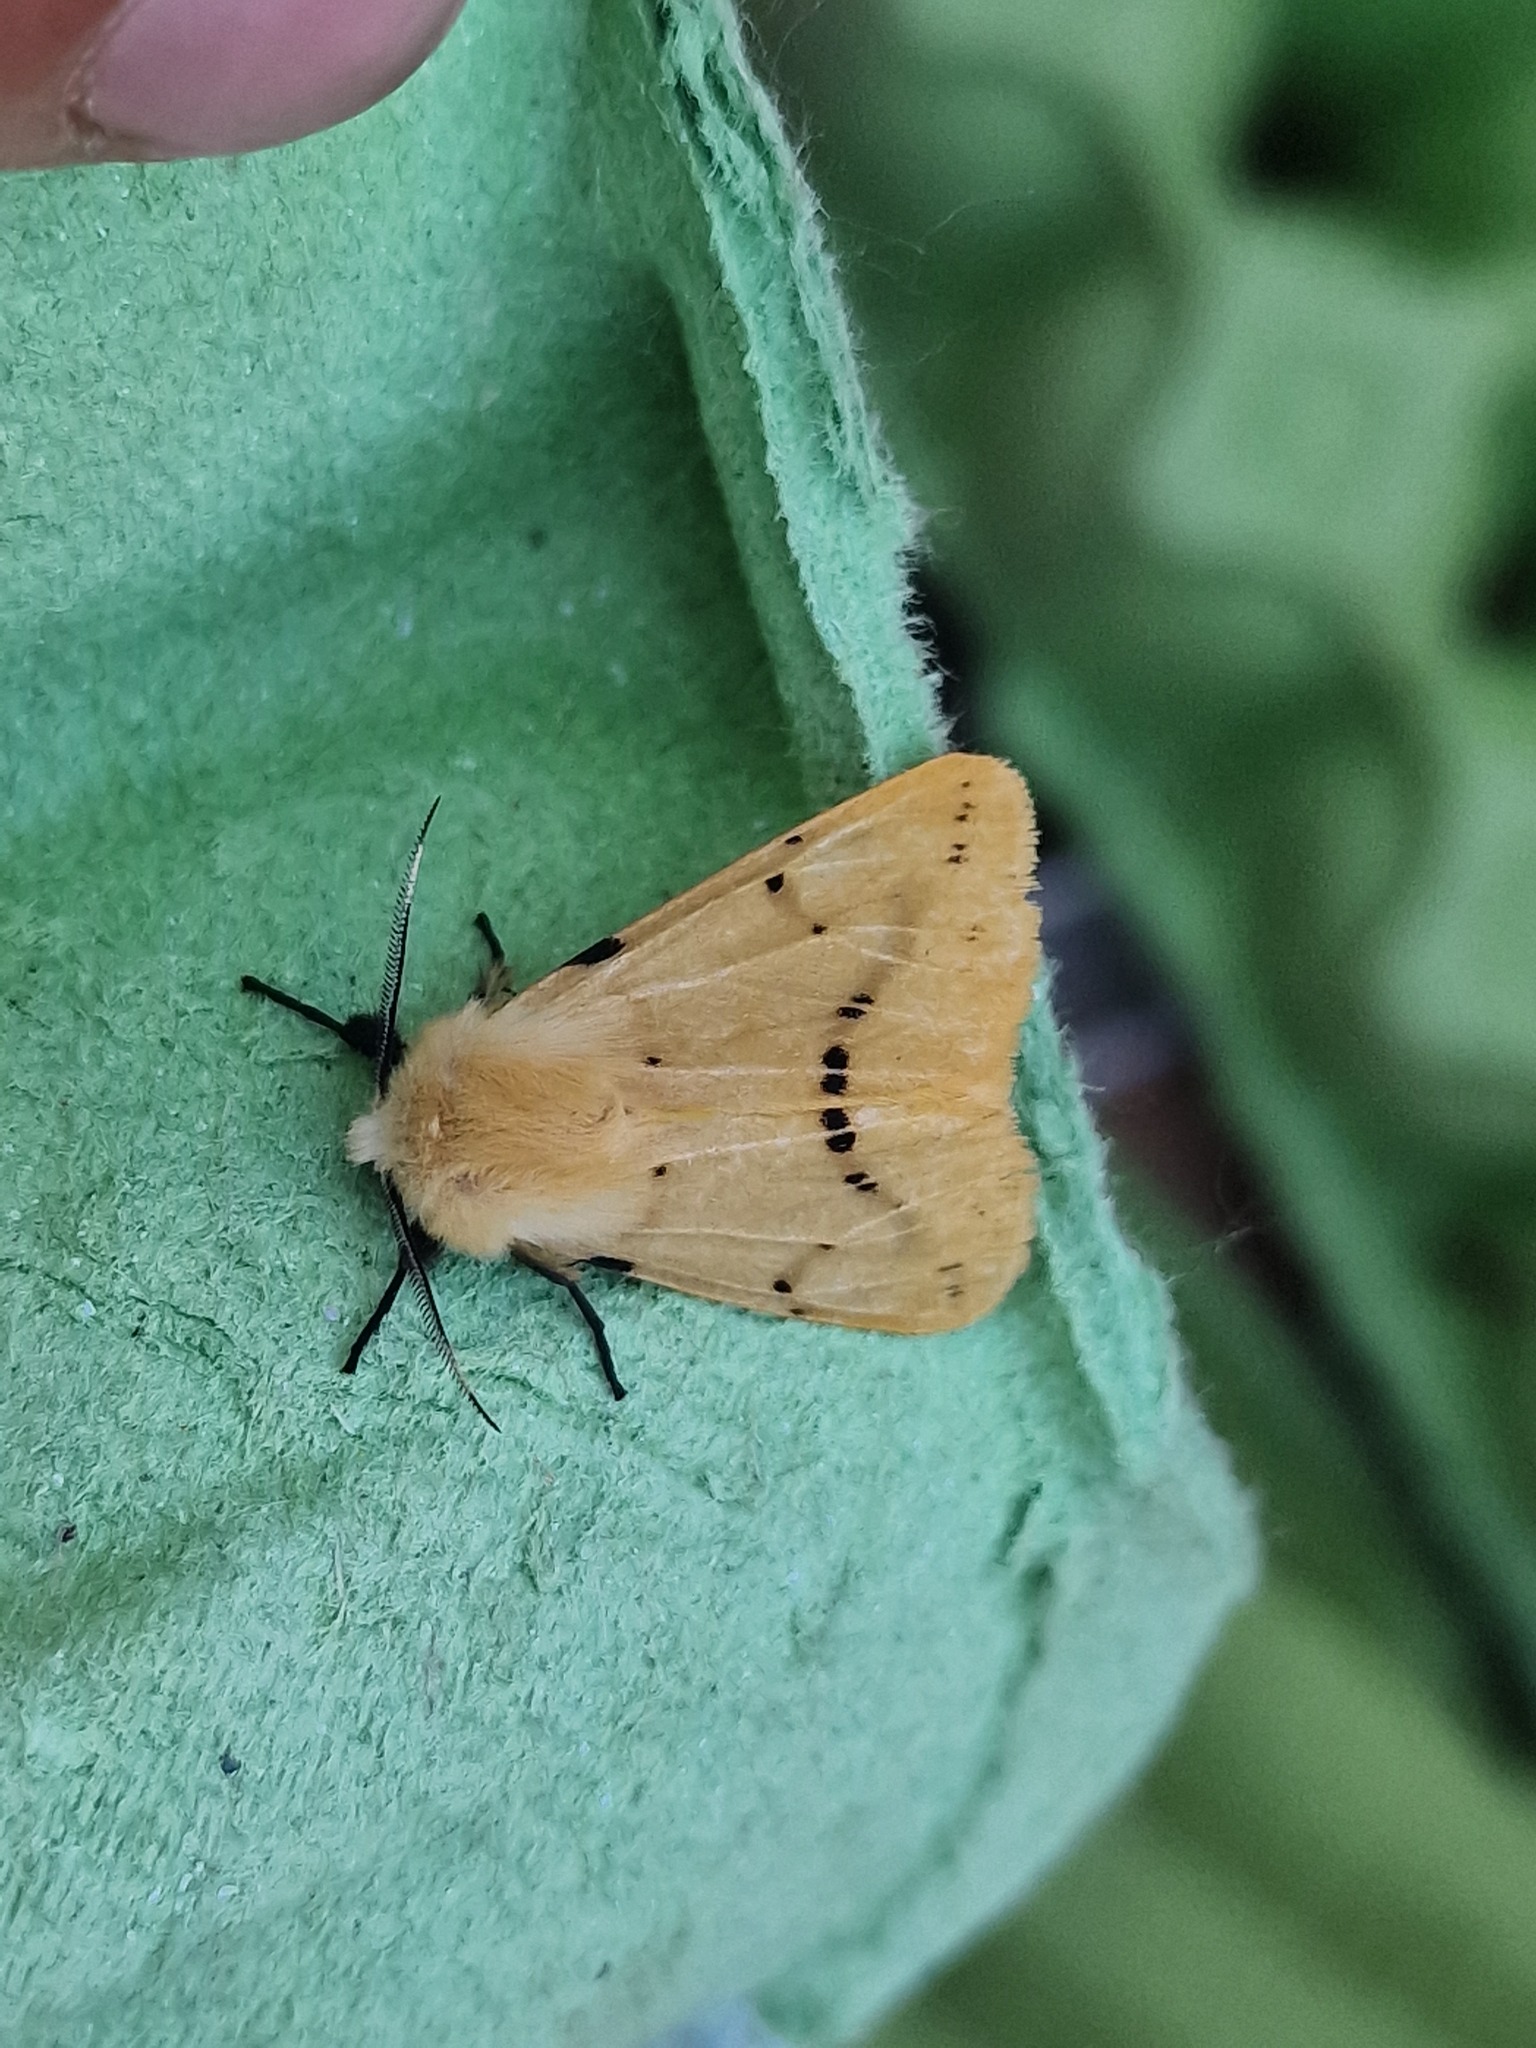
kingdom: Animalia
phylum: Arthropoda
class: Insecta
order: Lepidoptera
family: Erebidae
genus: Spilarctia
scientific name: Spilarctia lutea
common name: Buff ermine
